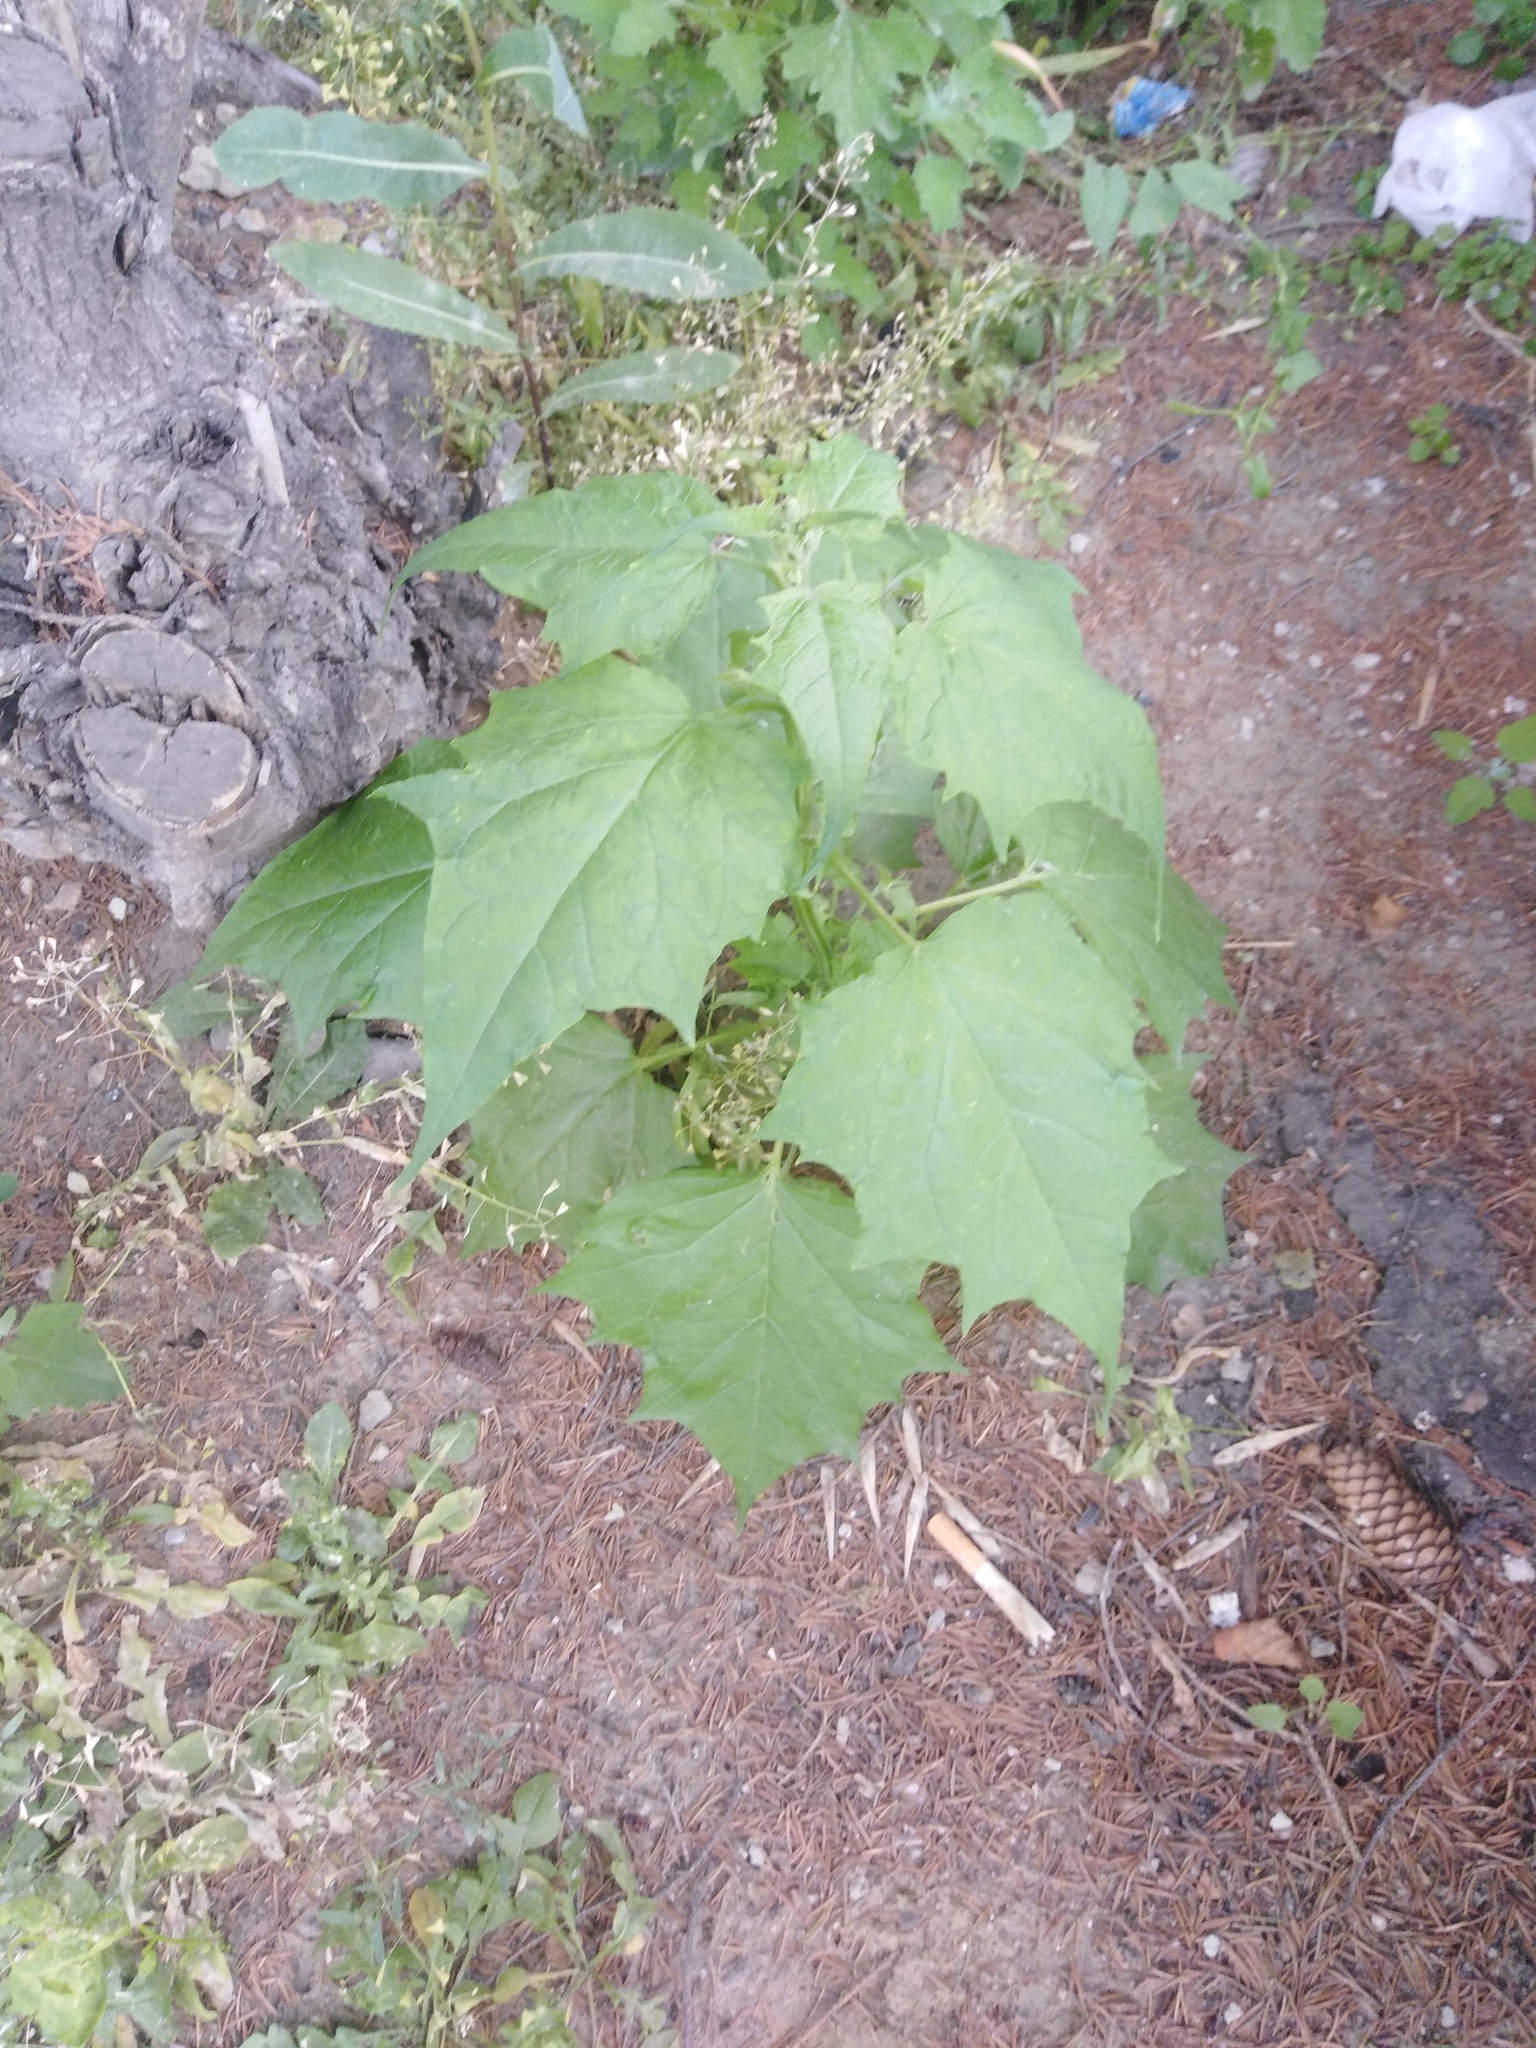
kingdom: Plantae
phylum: Tracheophyta
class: Magnoliopsida
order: Caryophyllales
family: Amaranthaceae
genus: Chenopodiastrum
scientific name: Chenopodiastrum hybridum
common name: Mapleleaf goosefoot
